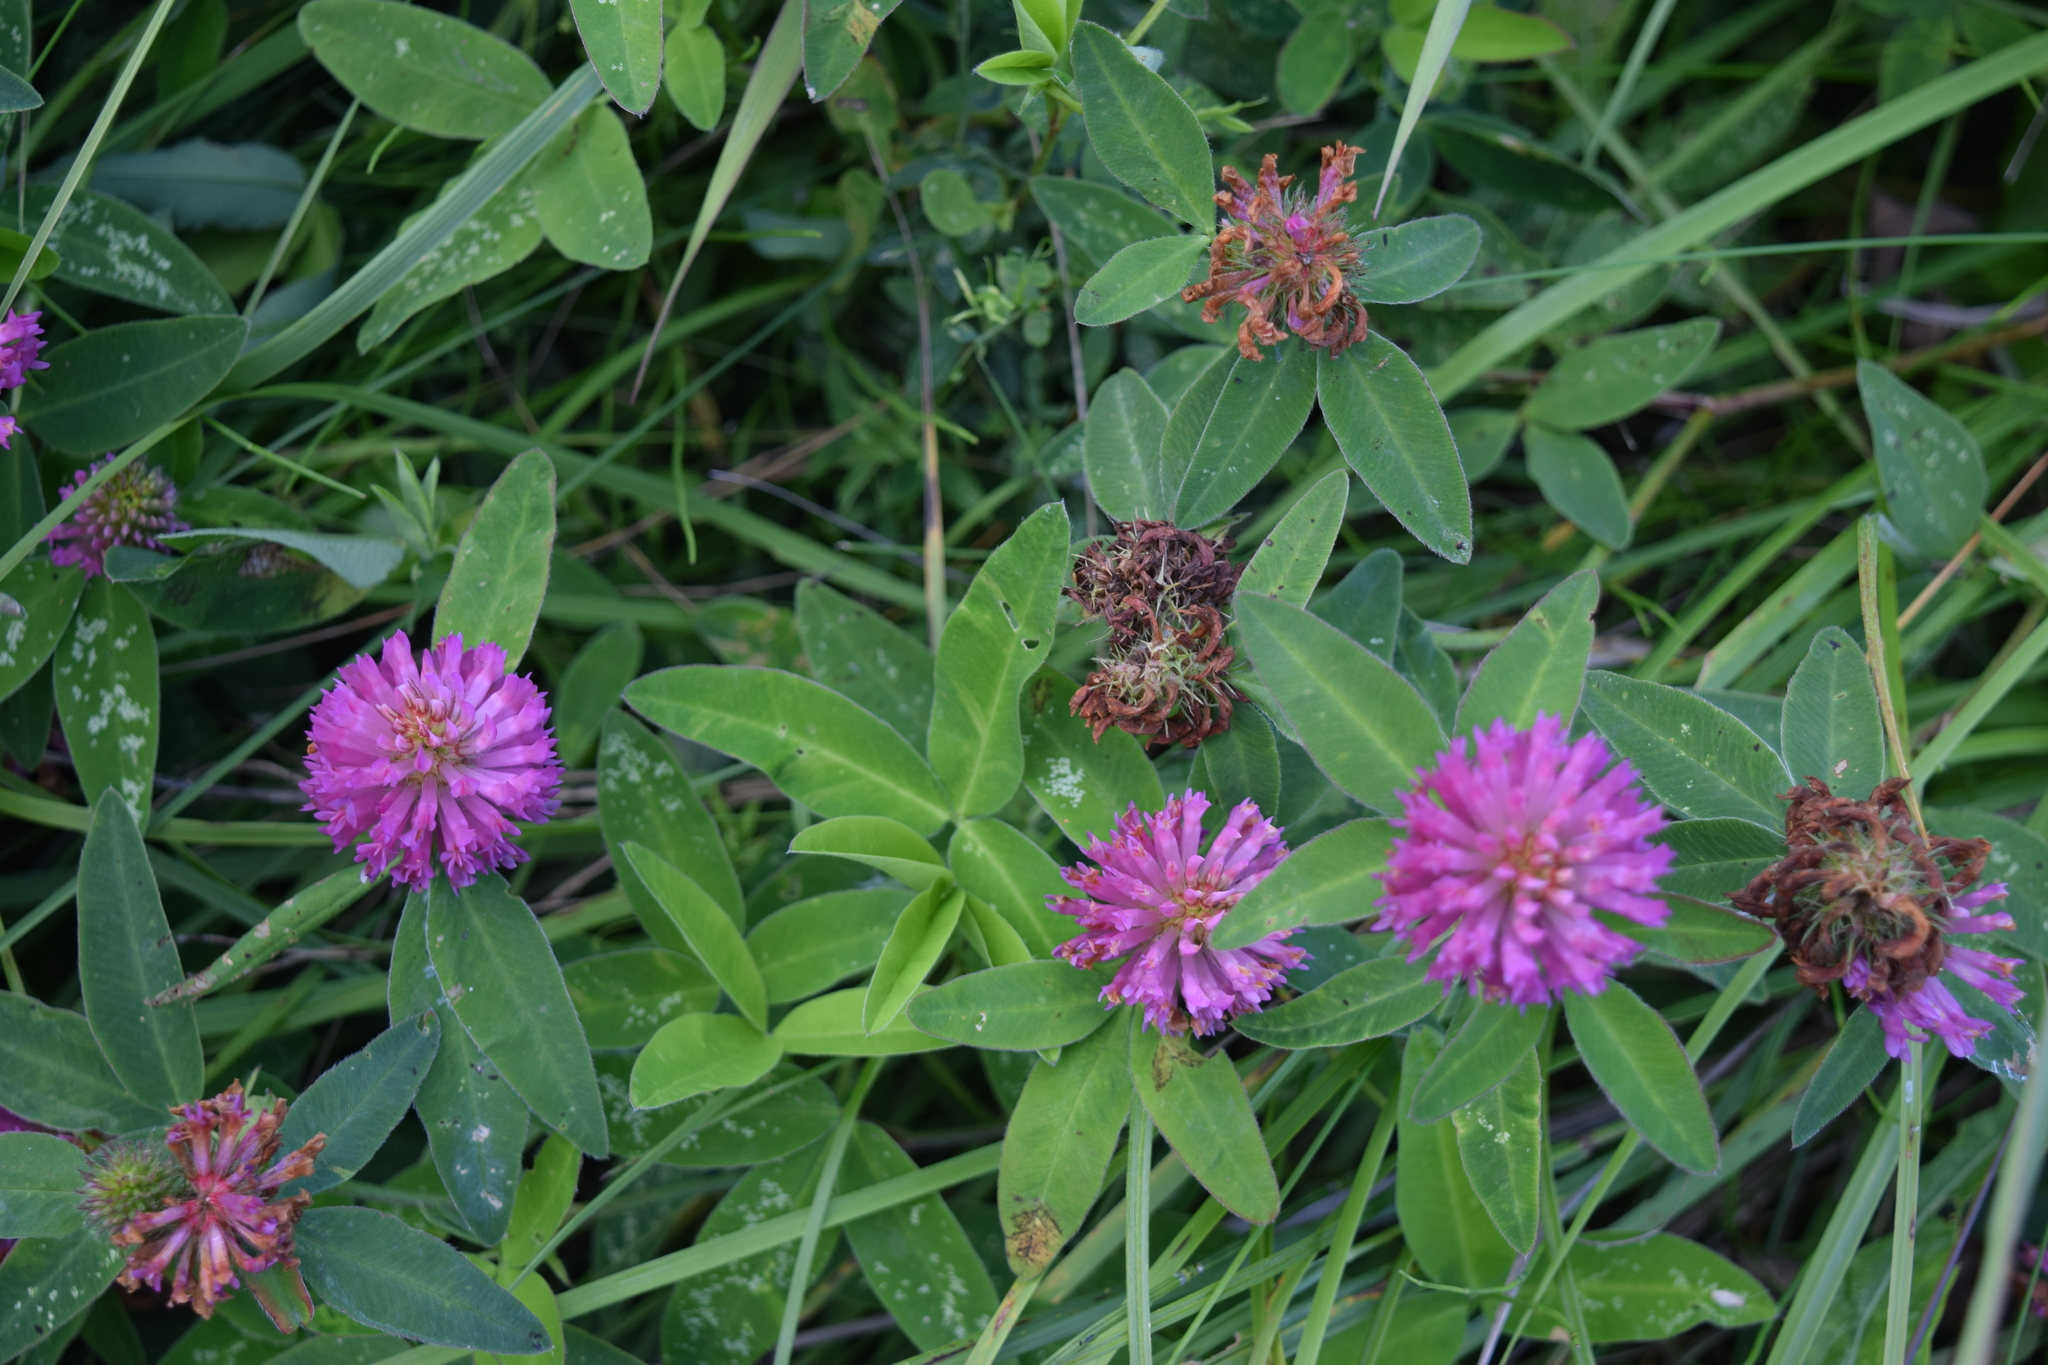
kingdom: Plantae
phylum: Tracheophyta
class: Magnoliopsida
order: Fabales
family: Fabaceae
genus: Trifolium
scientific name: Trifolium medium
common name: Zigzag clover
